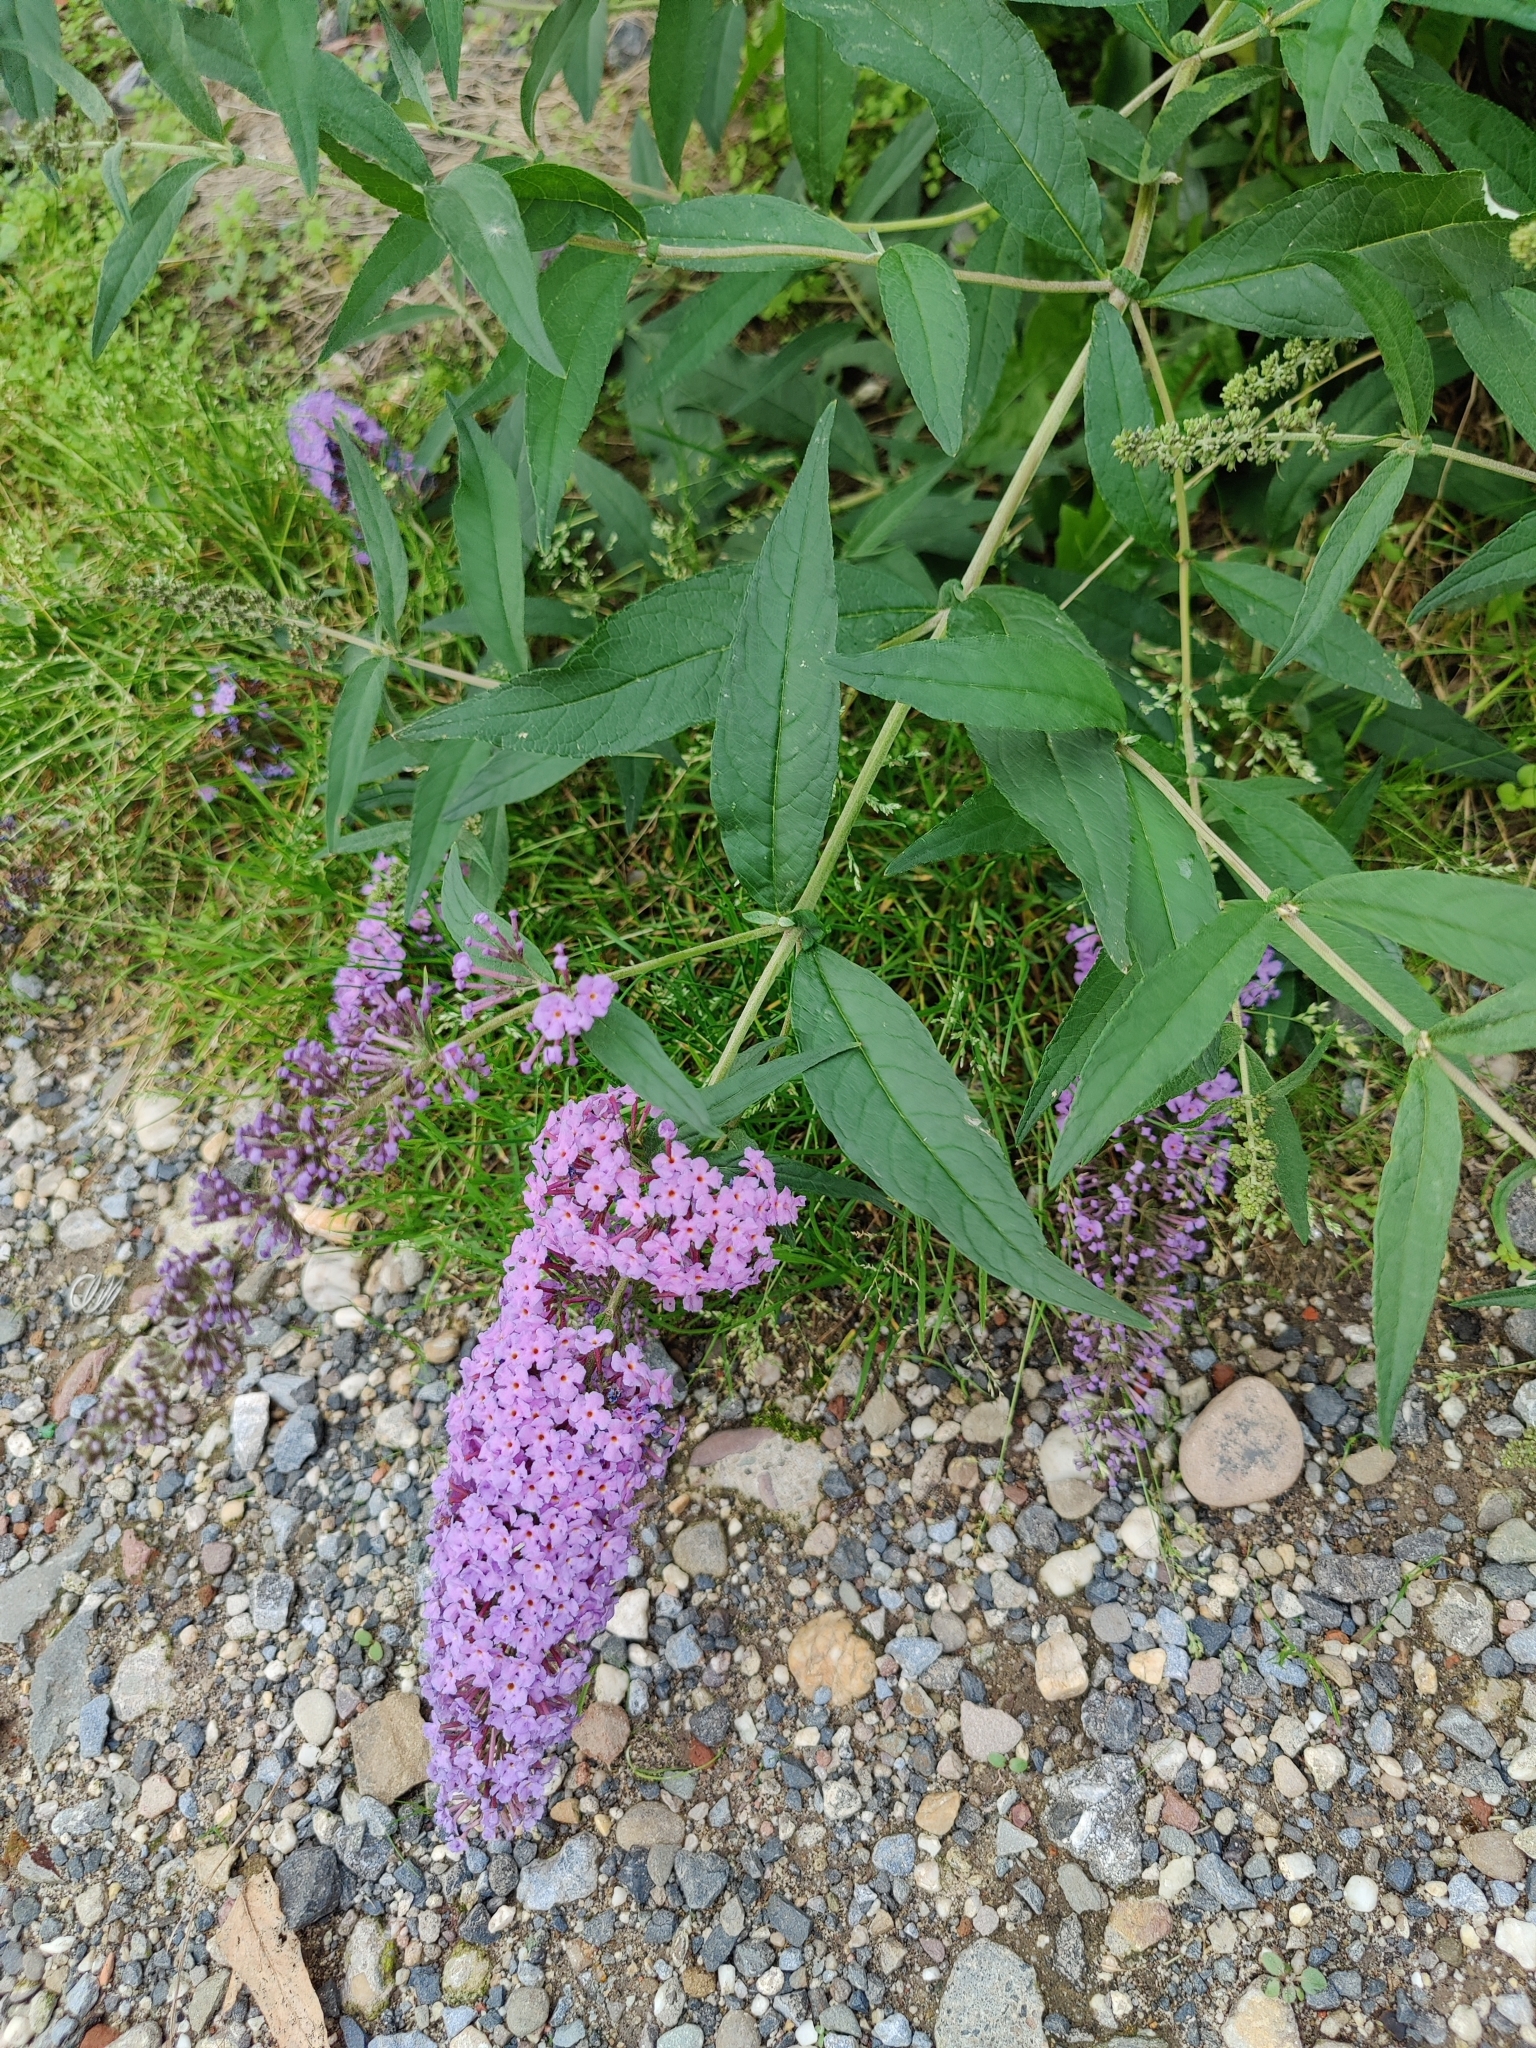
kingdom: Plantae
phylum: Tracheophyta
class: Magnoliopsida
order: Lamiales
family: Scrophulariaceae
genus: Buddleja
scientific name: Buddleja davidii
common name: Butterfly-bush
